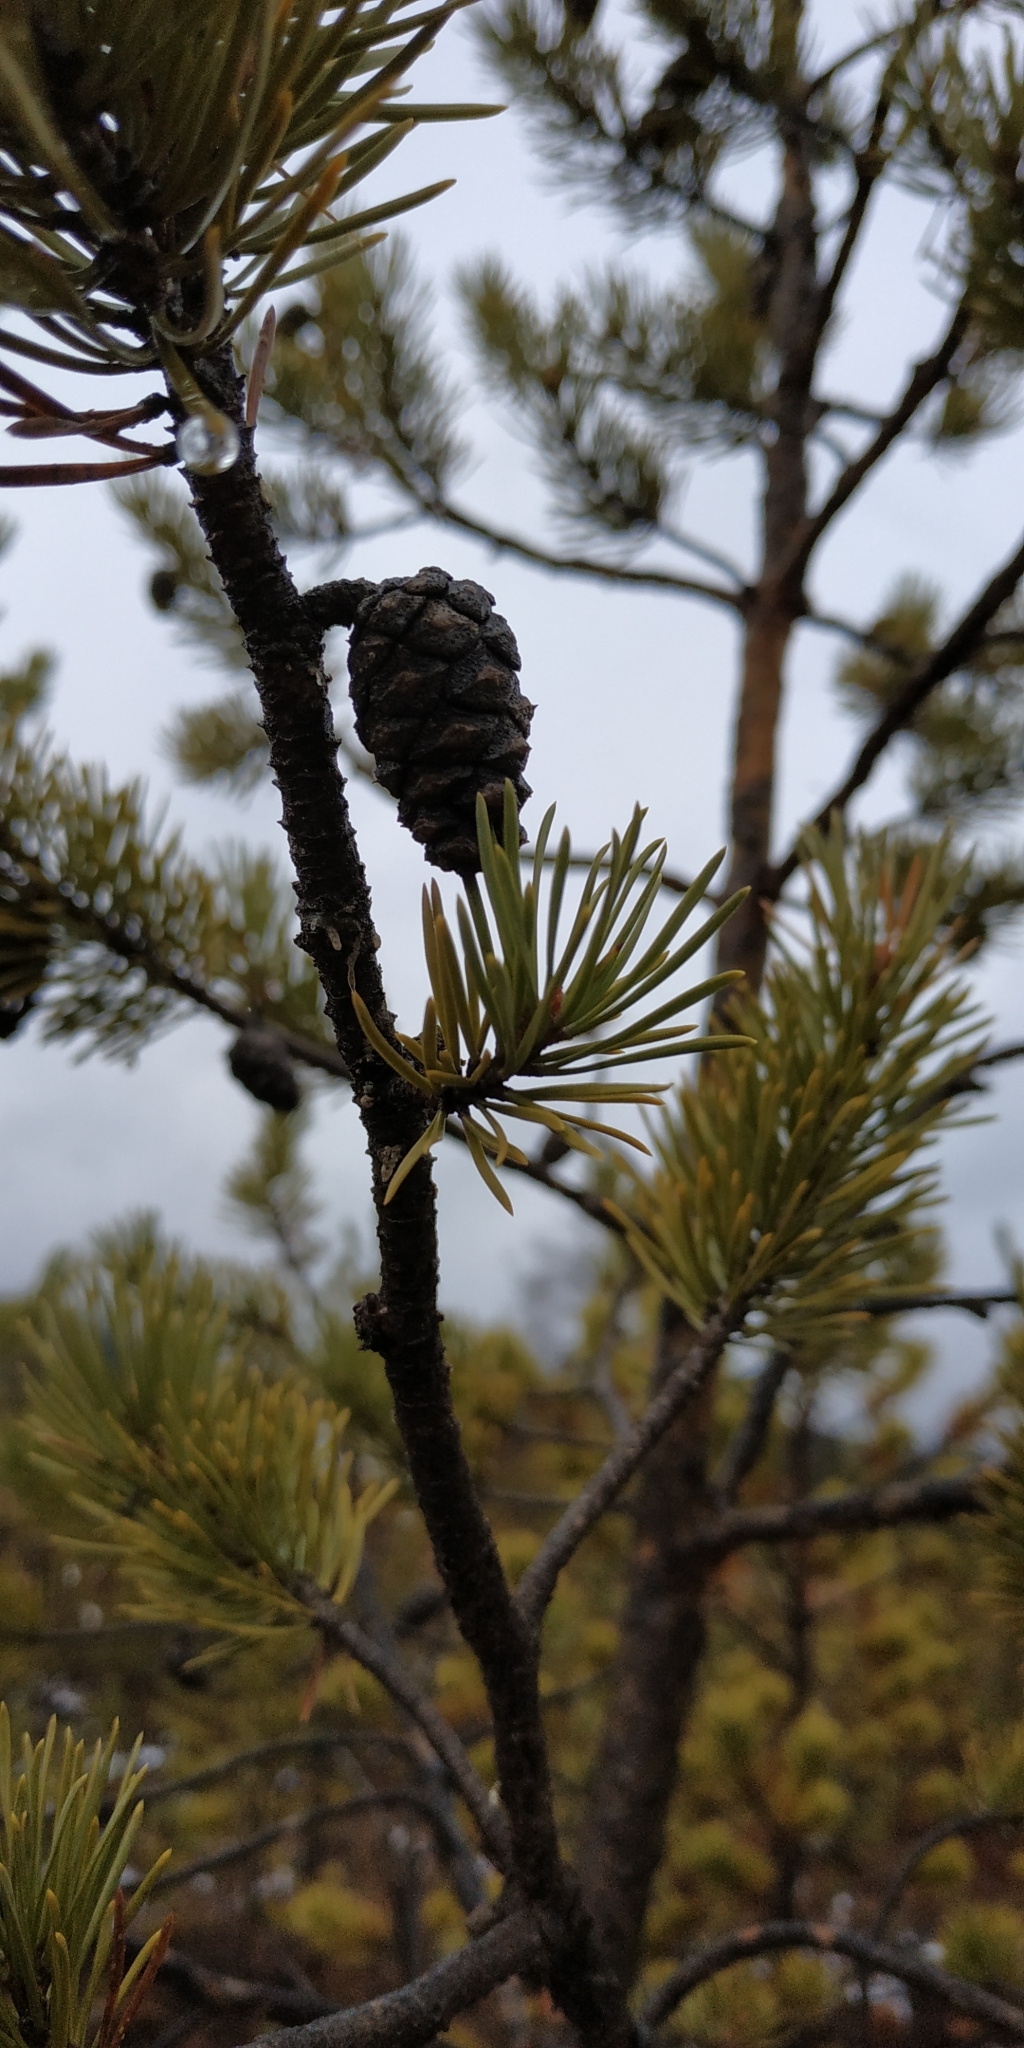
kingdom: Plantae
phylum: Tracheophyta
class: Pinopsida
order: Pinales
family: Pinaceae
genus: Pinus
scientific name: Pinus sylvestris
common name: Scots pine
